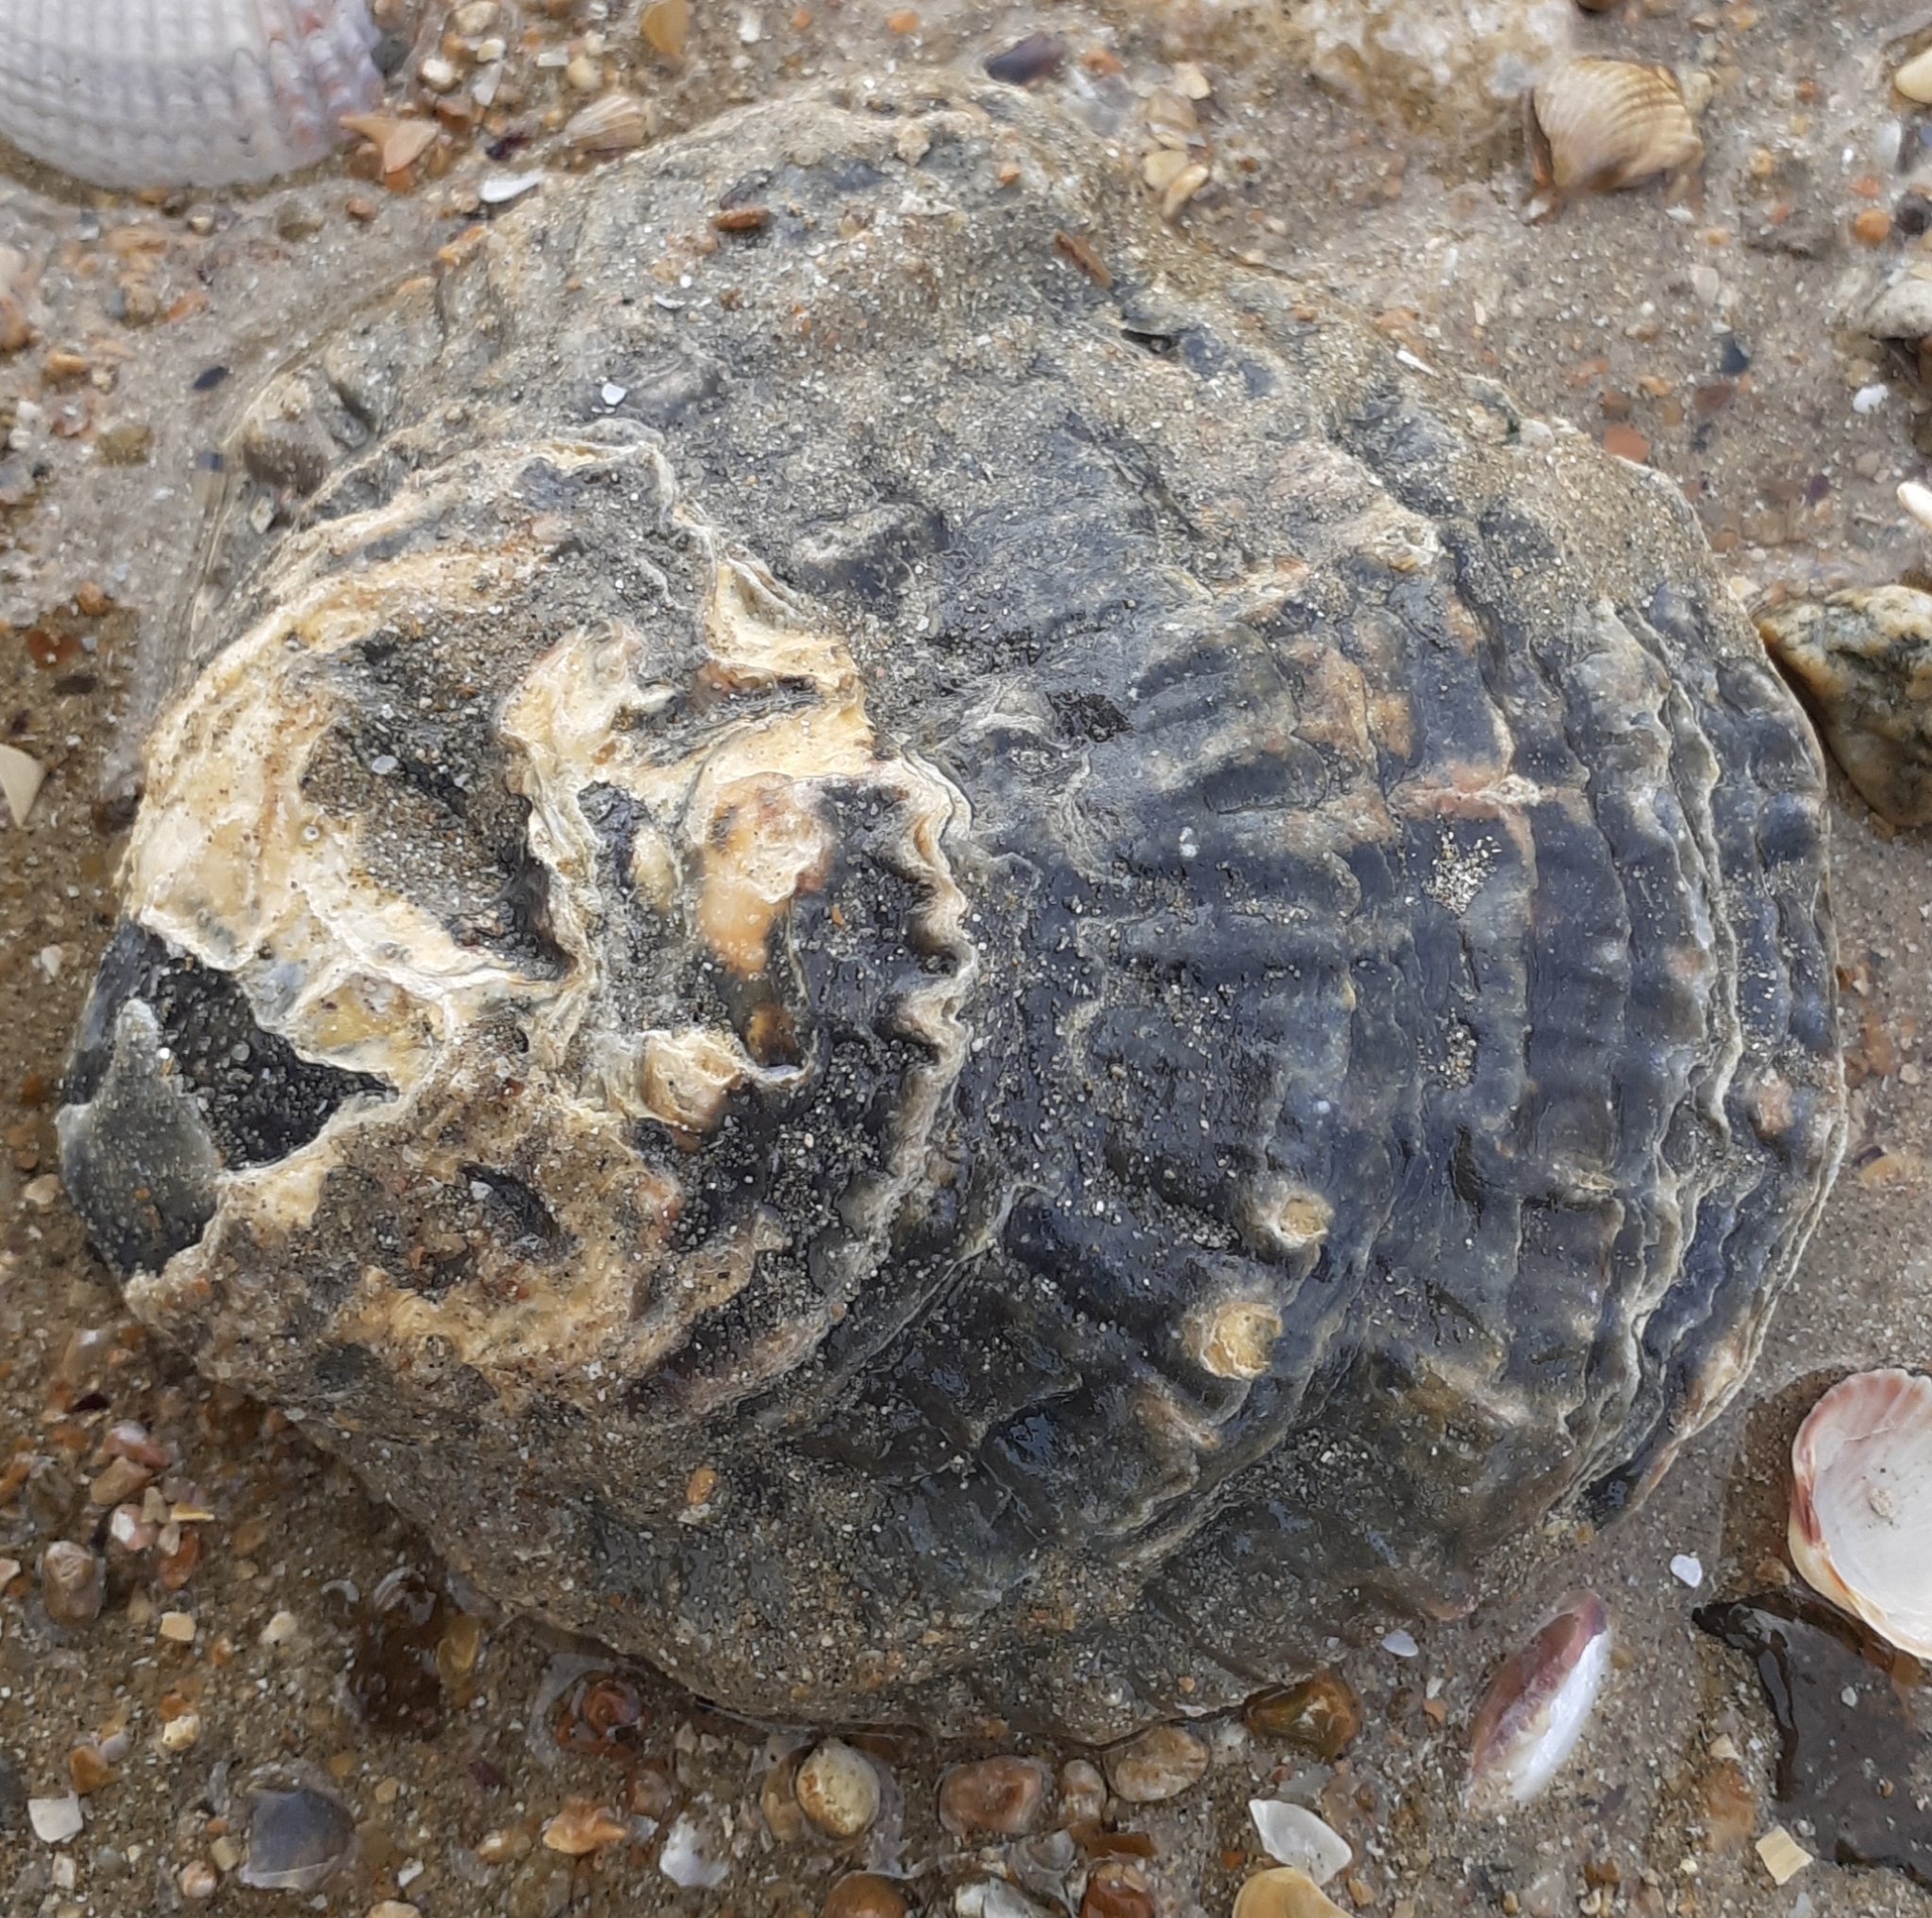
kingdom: Animalia
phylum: Mollusca
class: Bivalvia
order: Ostreida
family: Ostreidae
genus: Ostrea
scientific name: Ostrea edulis
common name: Flat oyster
